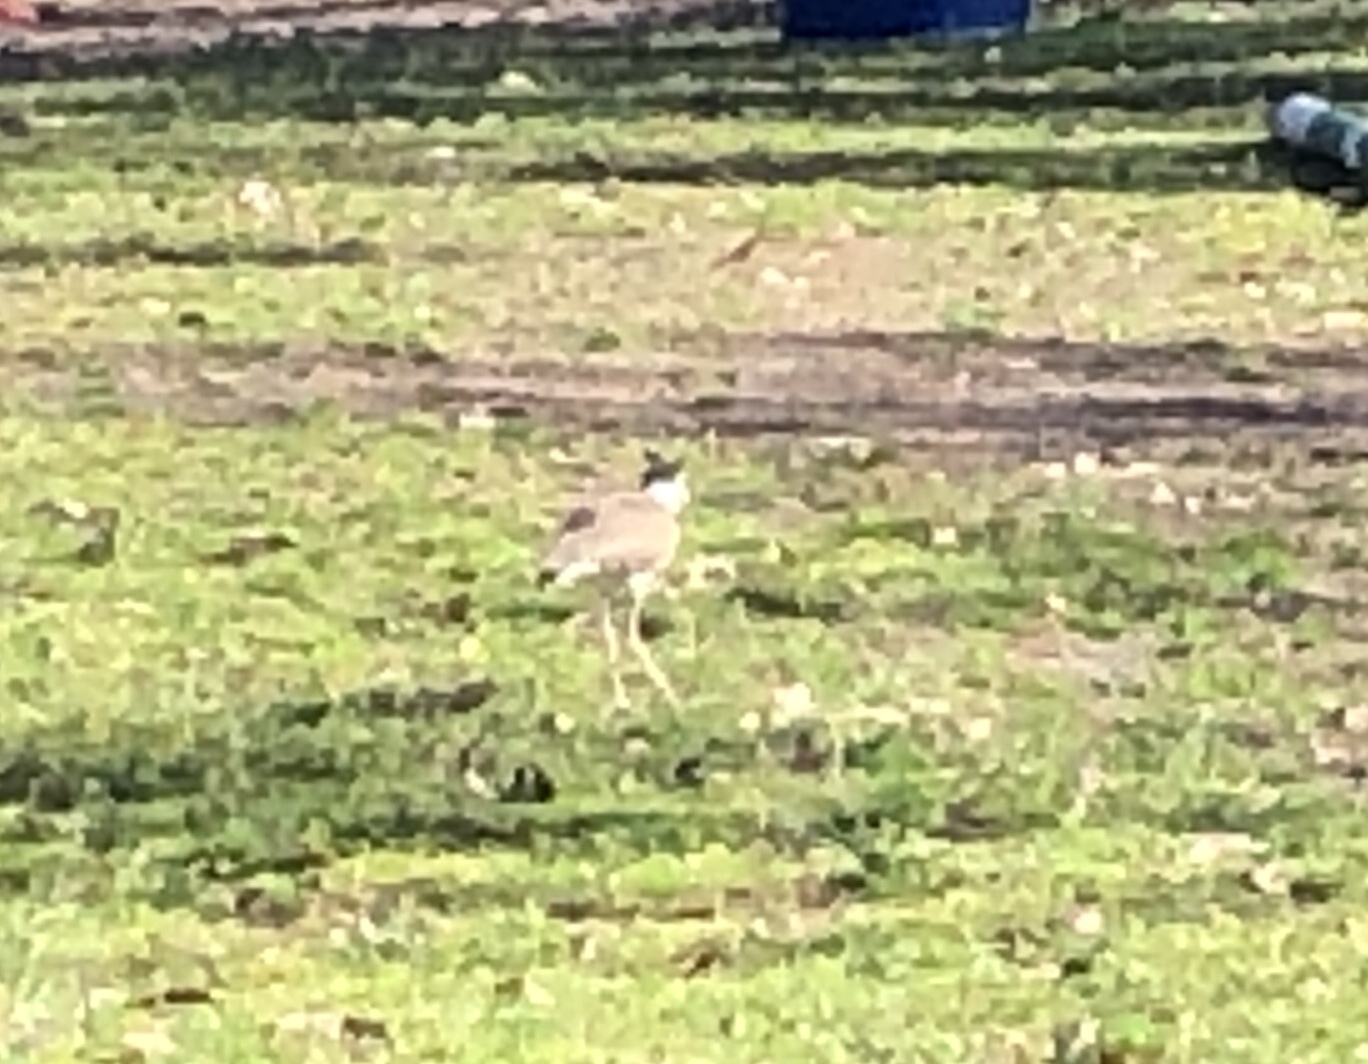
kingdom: Animalia
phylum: Chordata
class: Aves
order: Charadriiformes
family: Charadriidae
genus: Vanellus
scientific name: Vanellus miles
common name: Masked lapwing
